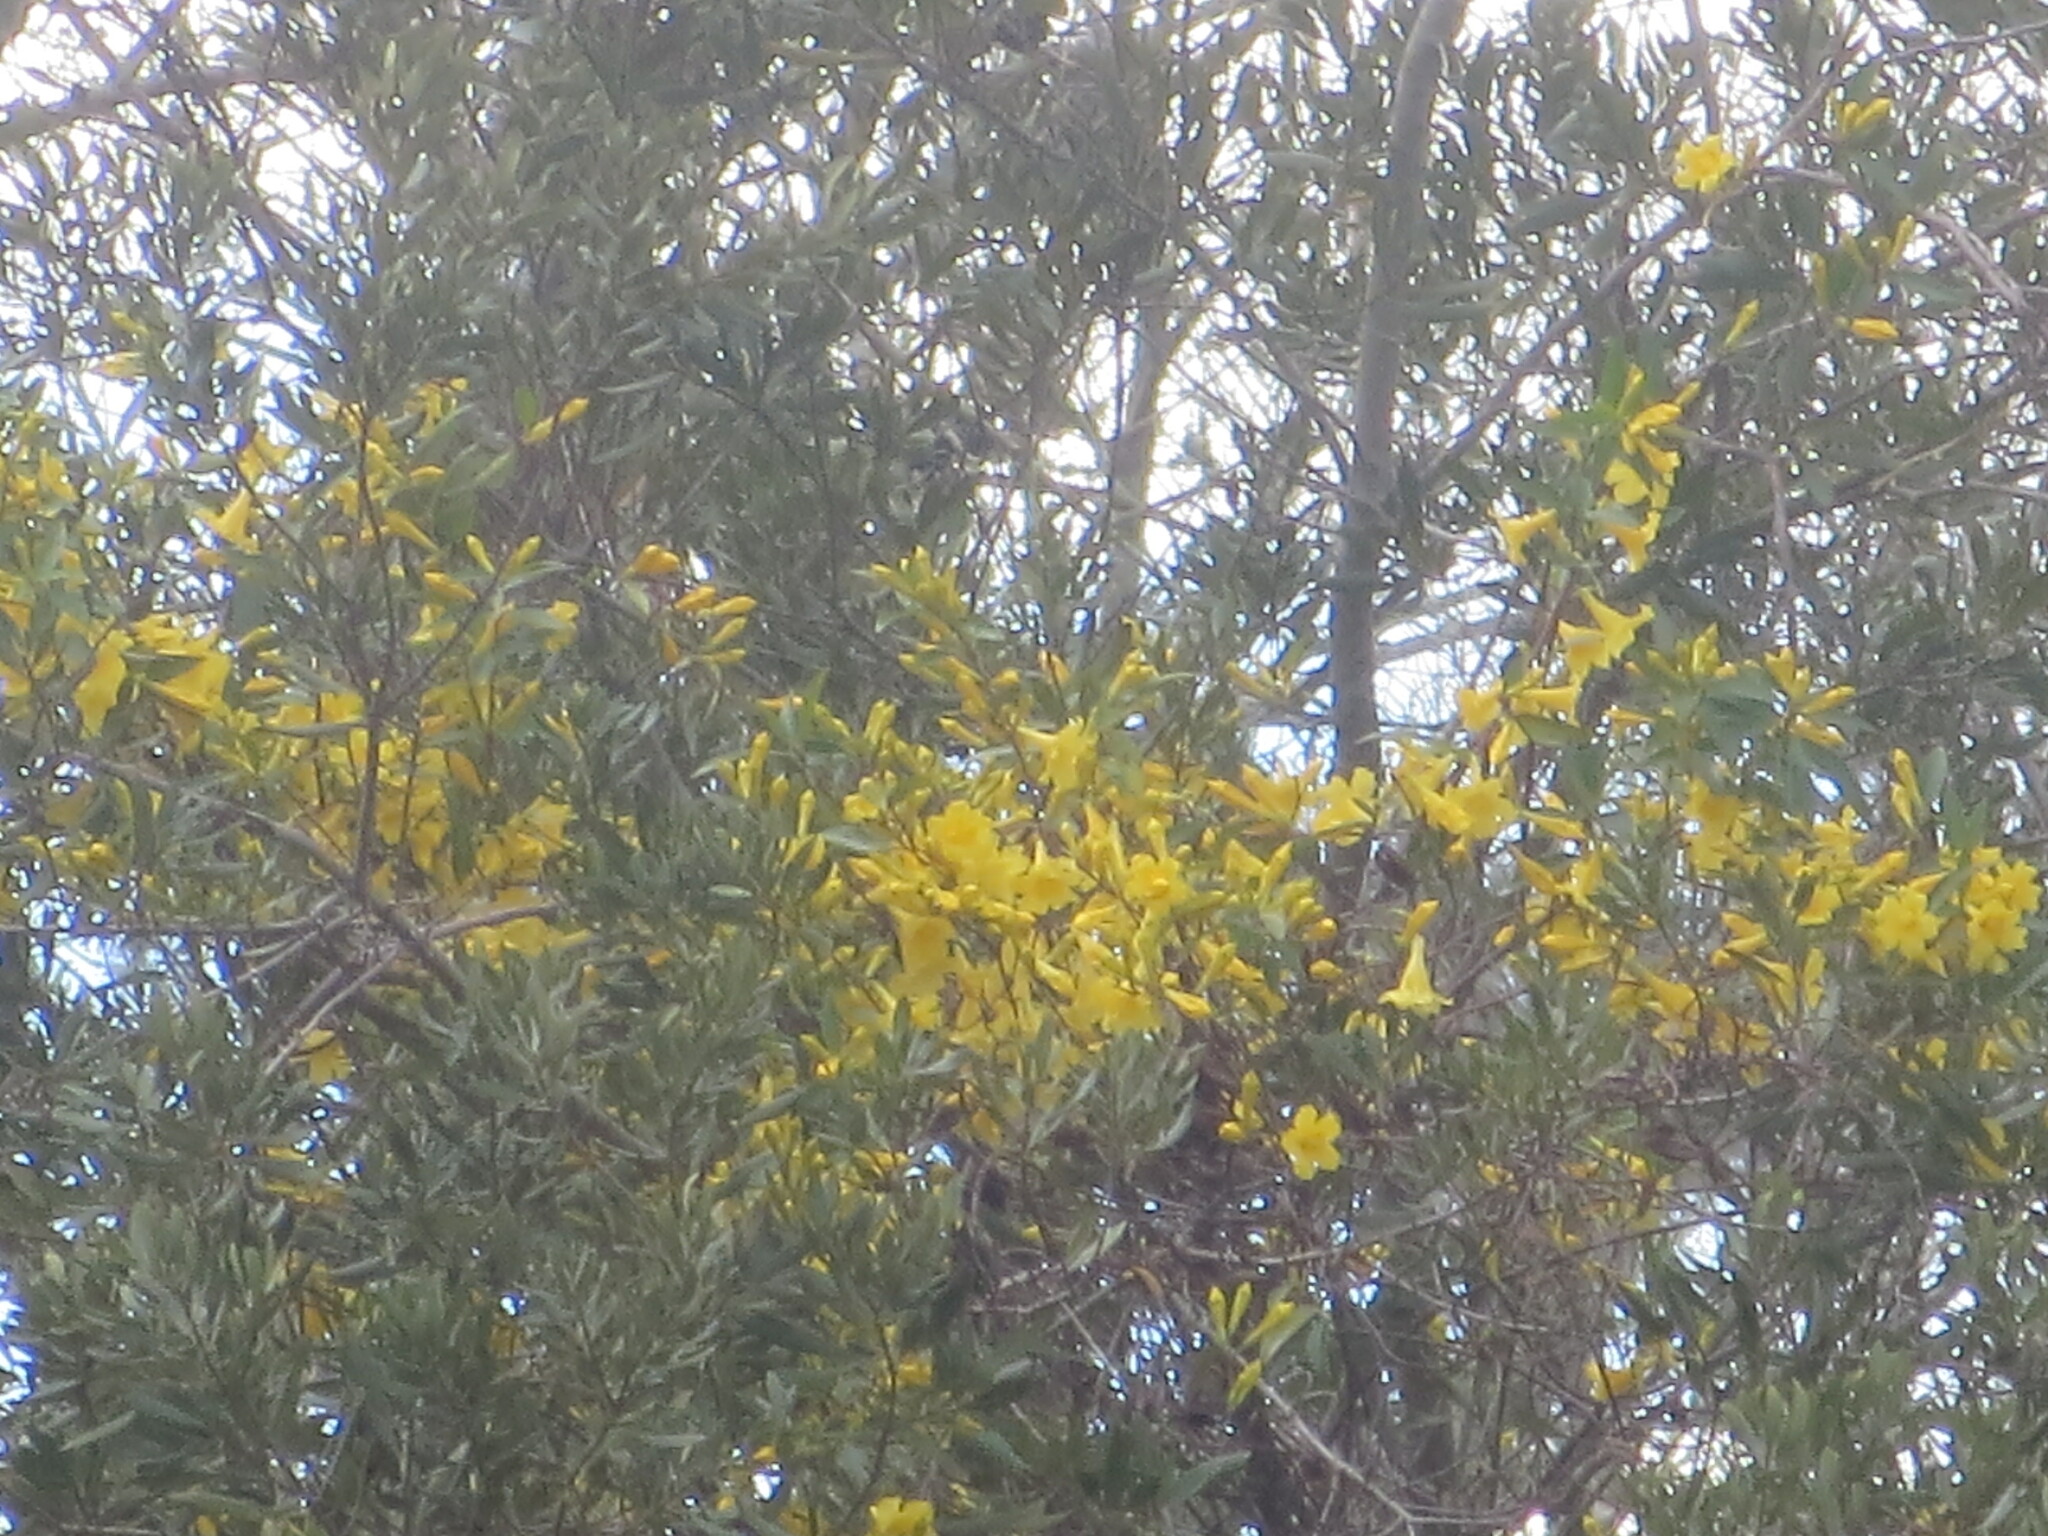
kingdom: Plantae
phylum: Tracheophyta
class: Magnoliopsida
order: Gentianales
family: Gelsemiaceae
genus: Gelsemium
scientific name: Gelsemium sempervirens
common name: Carolina-jasmine
